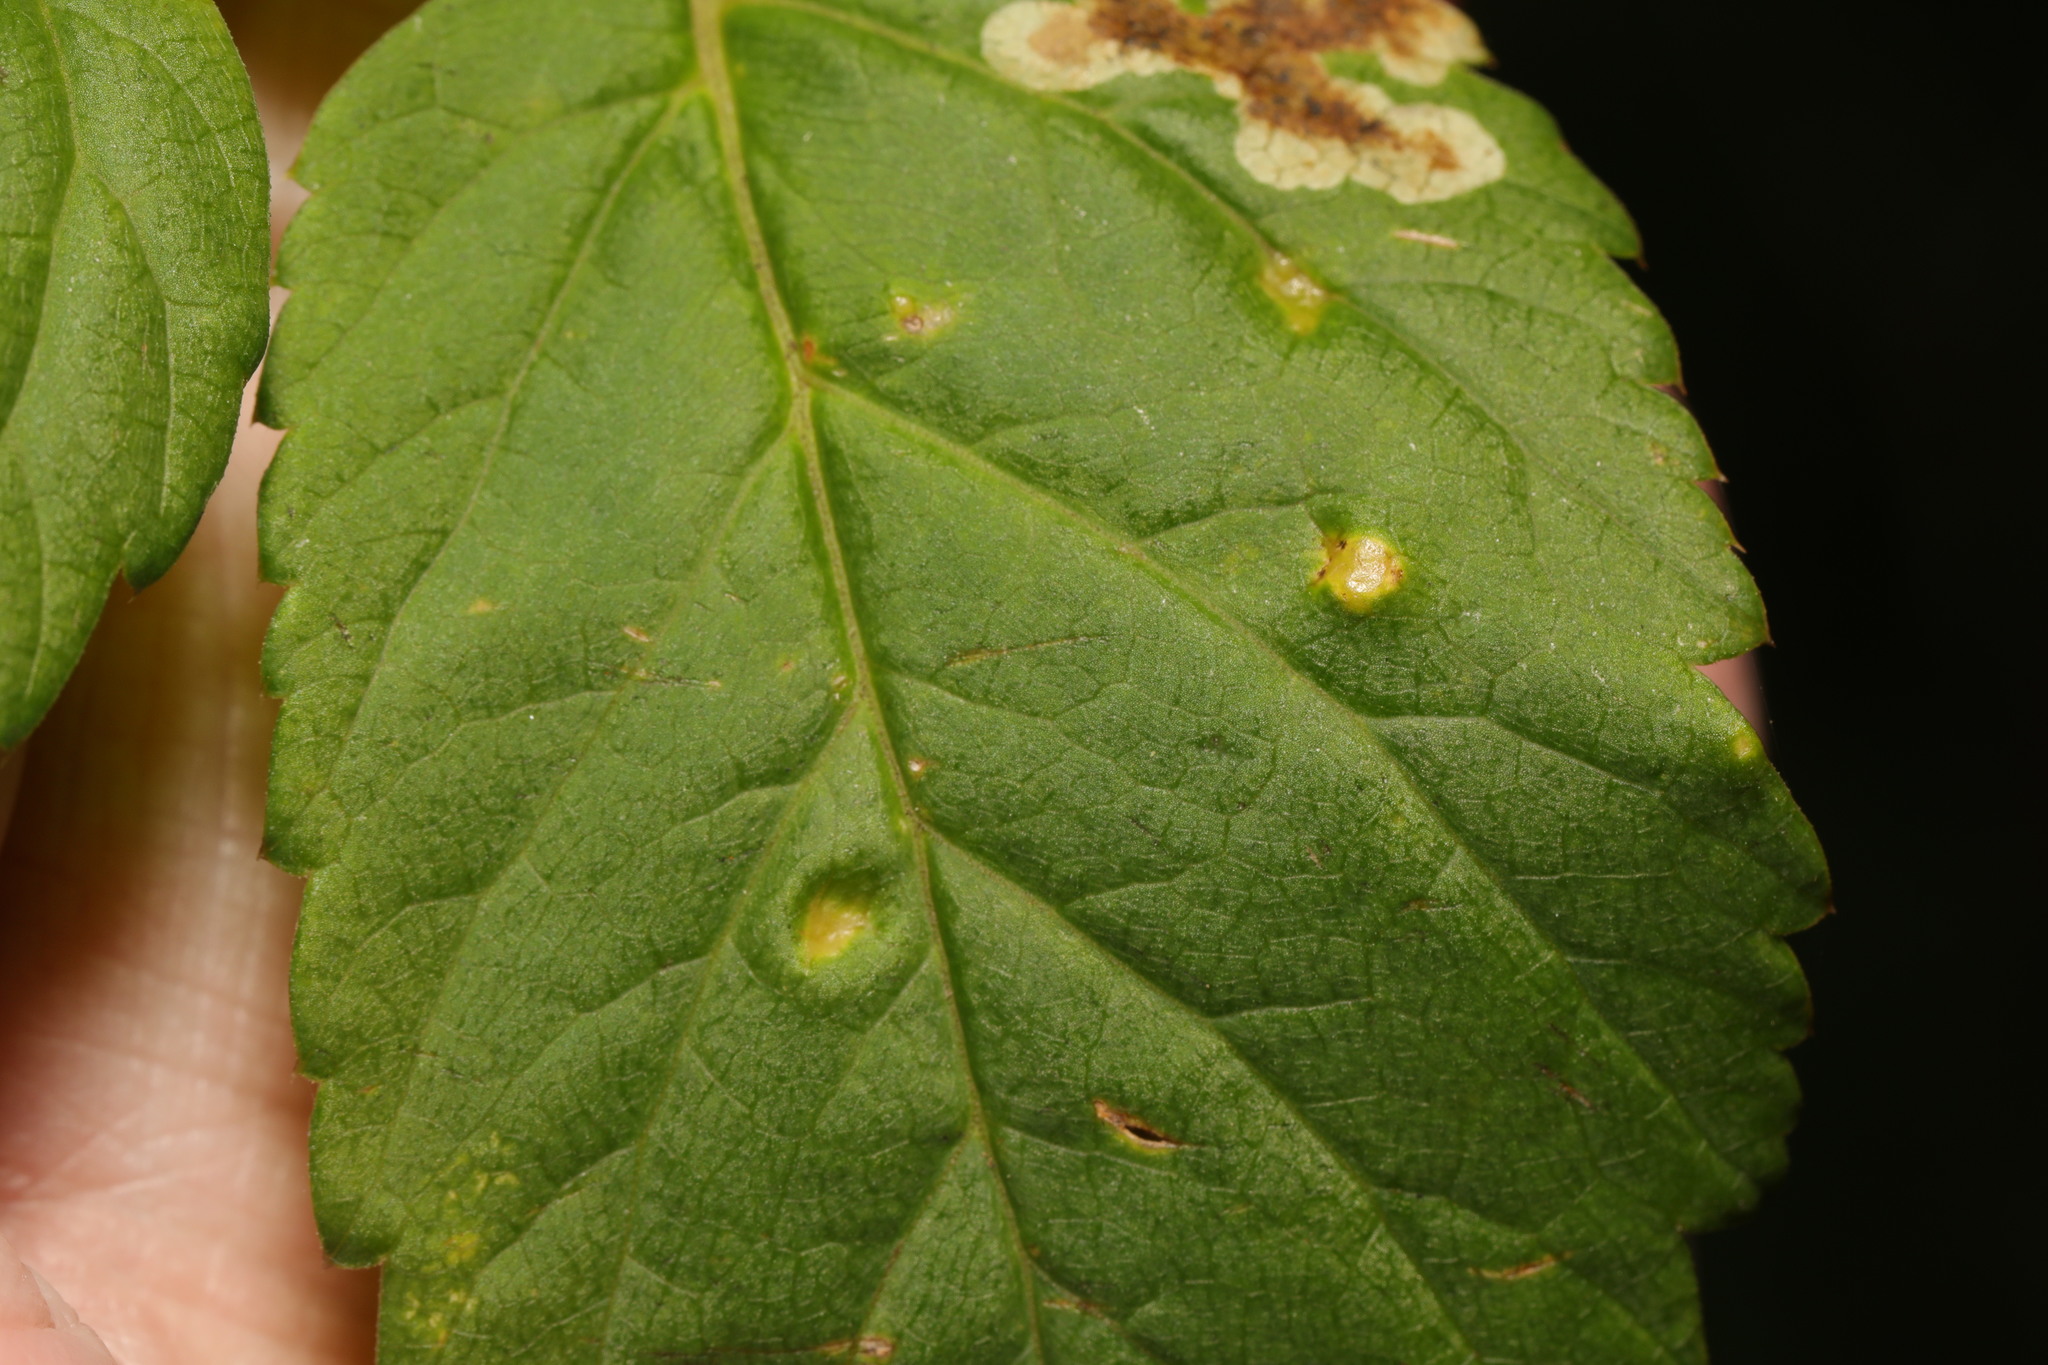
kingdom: Fungi
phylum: Ascomycota
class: Taphrinomycetes
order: Taphrinales
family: Taphrinaceae
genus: Protomyces
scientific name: Protomyces macrosporus
